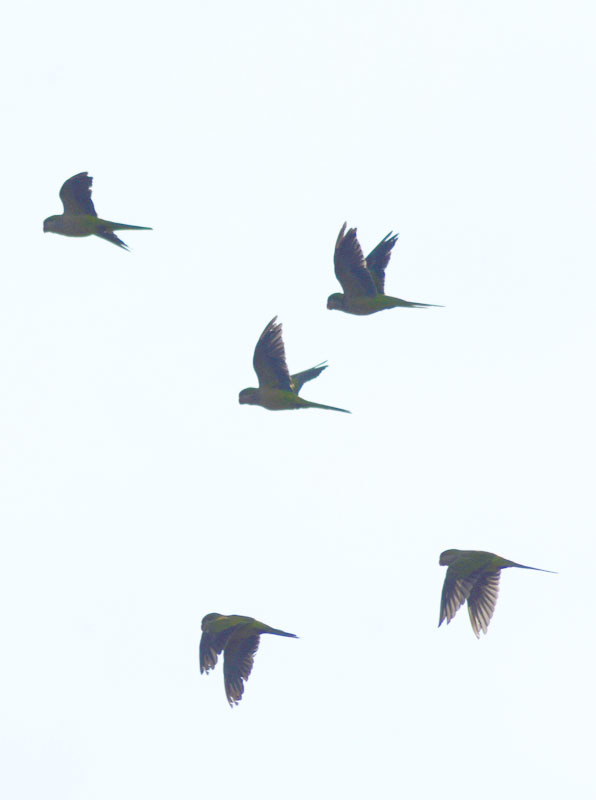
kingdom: Animalia
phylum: Chordata
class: Aves
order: Psittaciformes
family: Psittacidae
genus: Myiopsitta
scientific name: Myiopsitta monachus
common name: Monk parakeet
